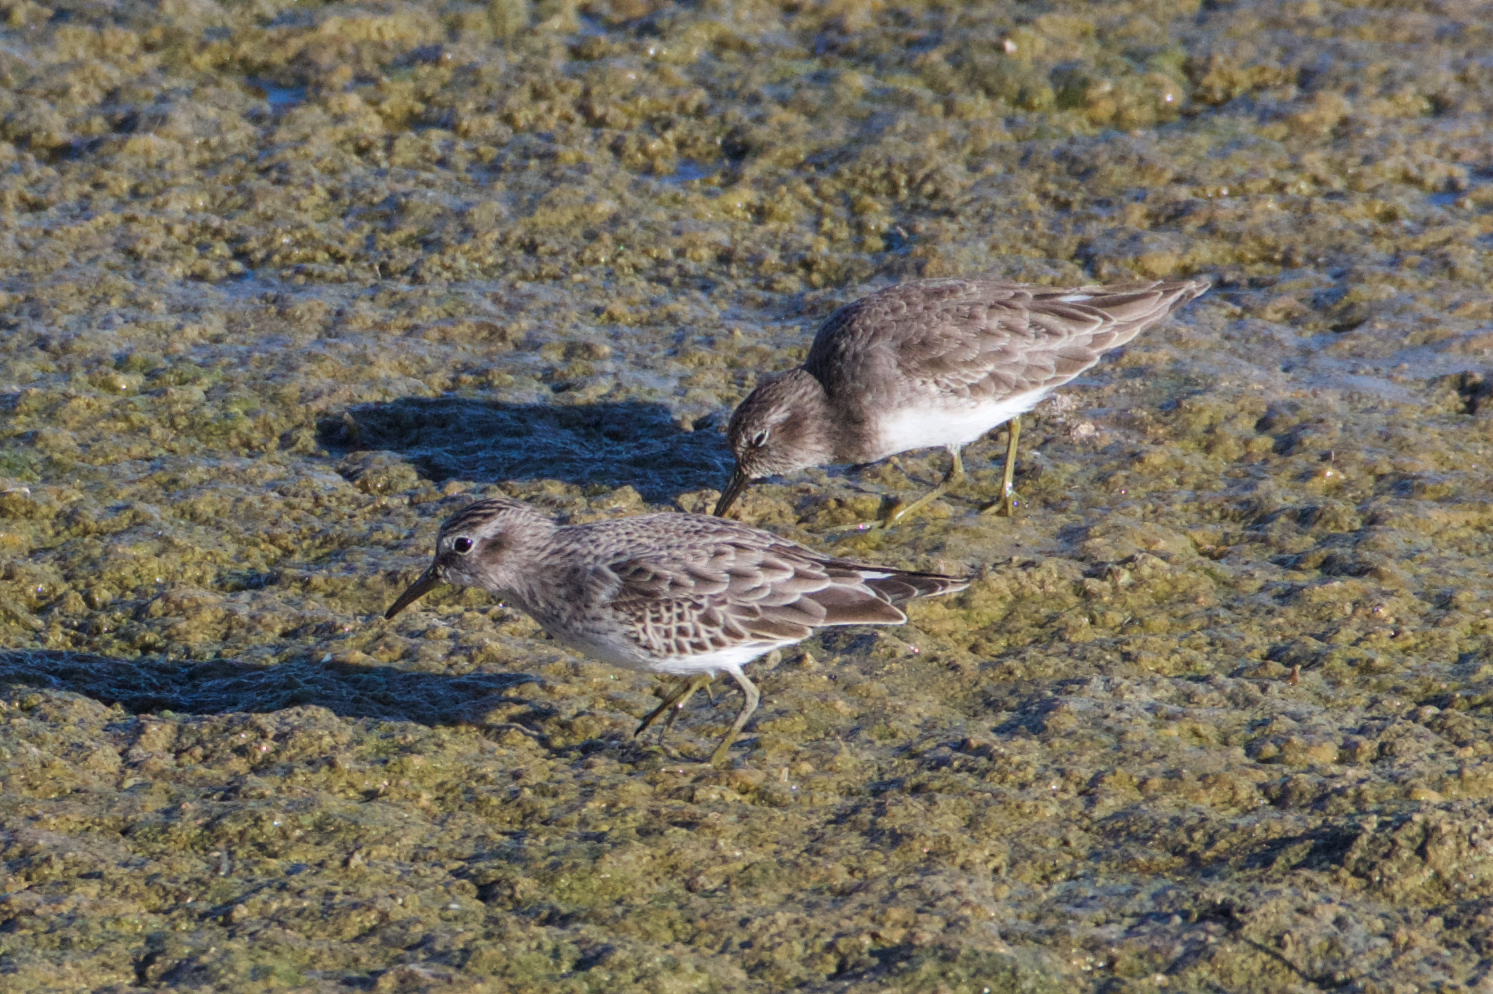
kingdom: Animalia
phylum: Chordata
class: Aves
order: Charadriiformes
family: Scolopacidae
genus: Calidris
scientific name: Calidris minutilla
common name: Least sandpiper
